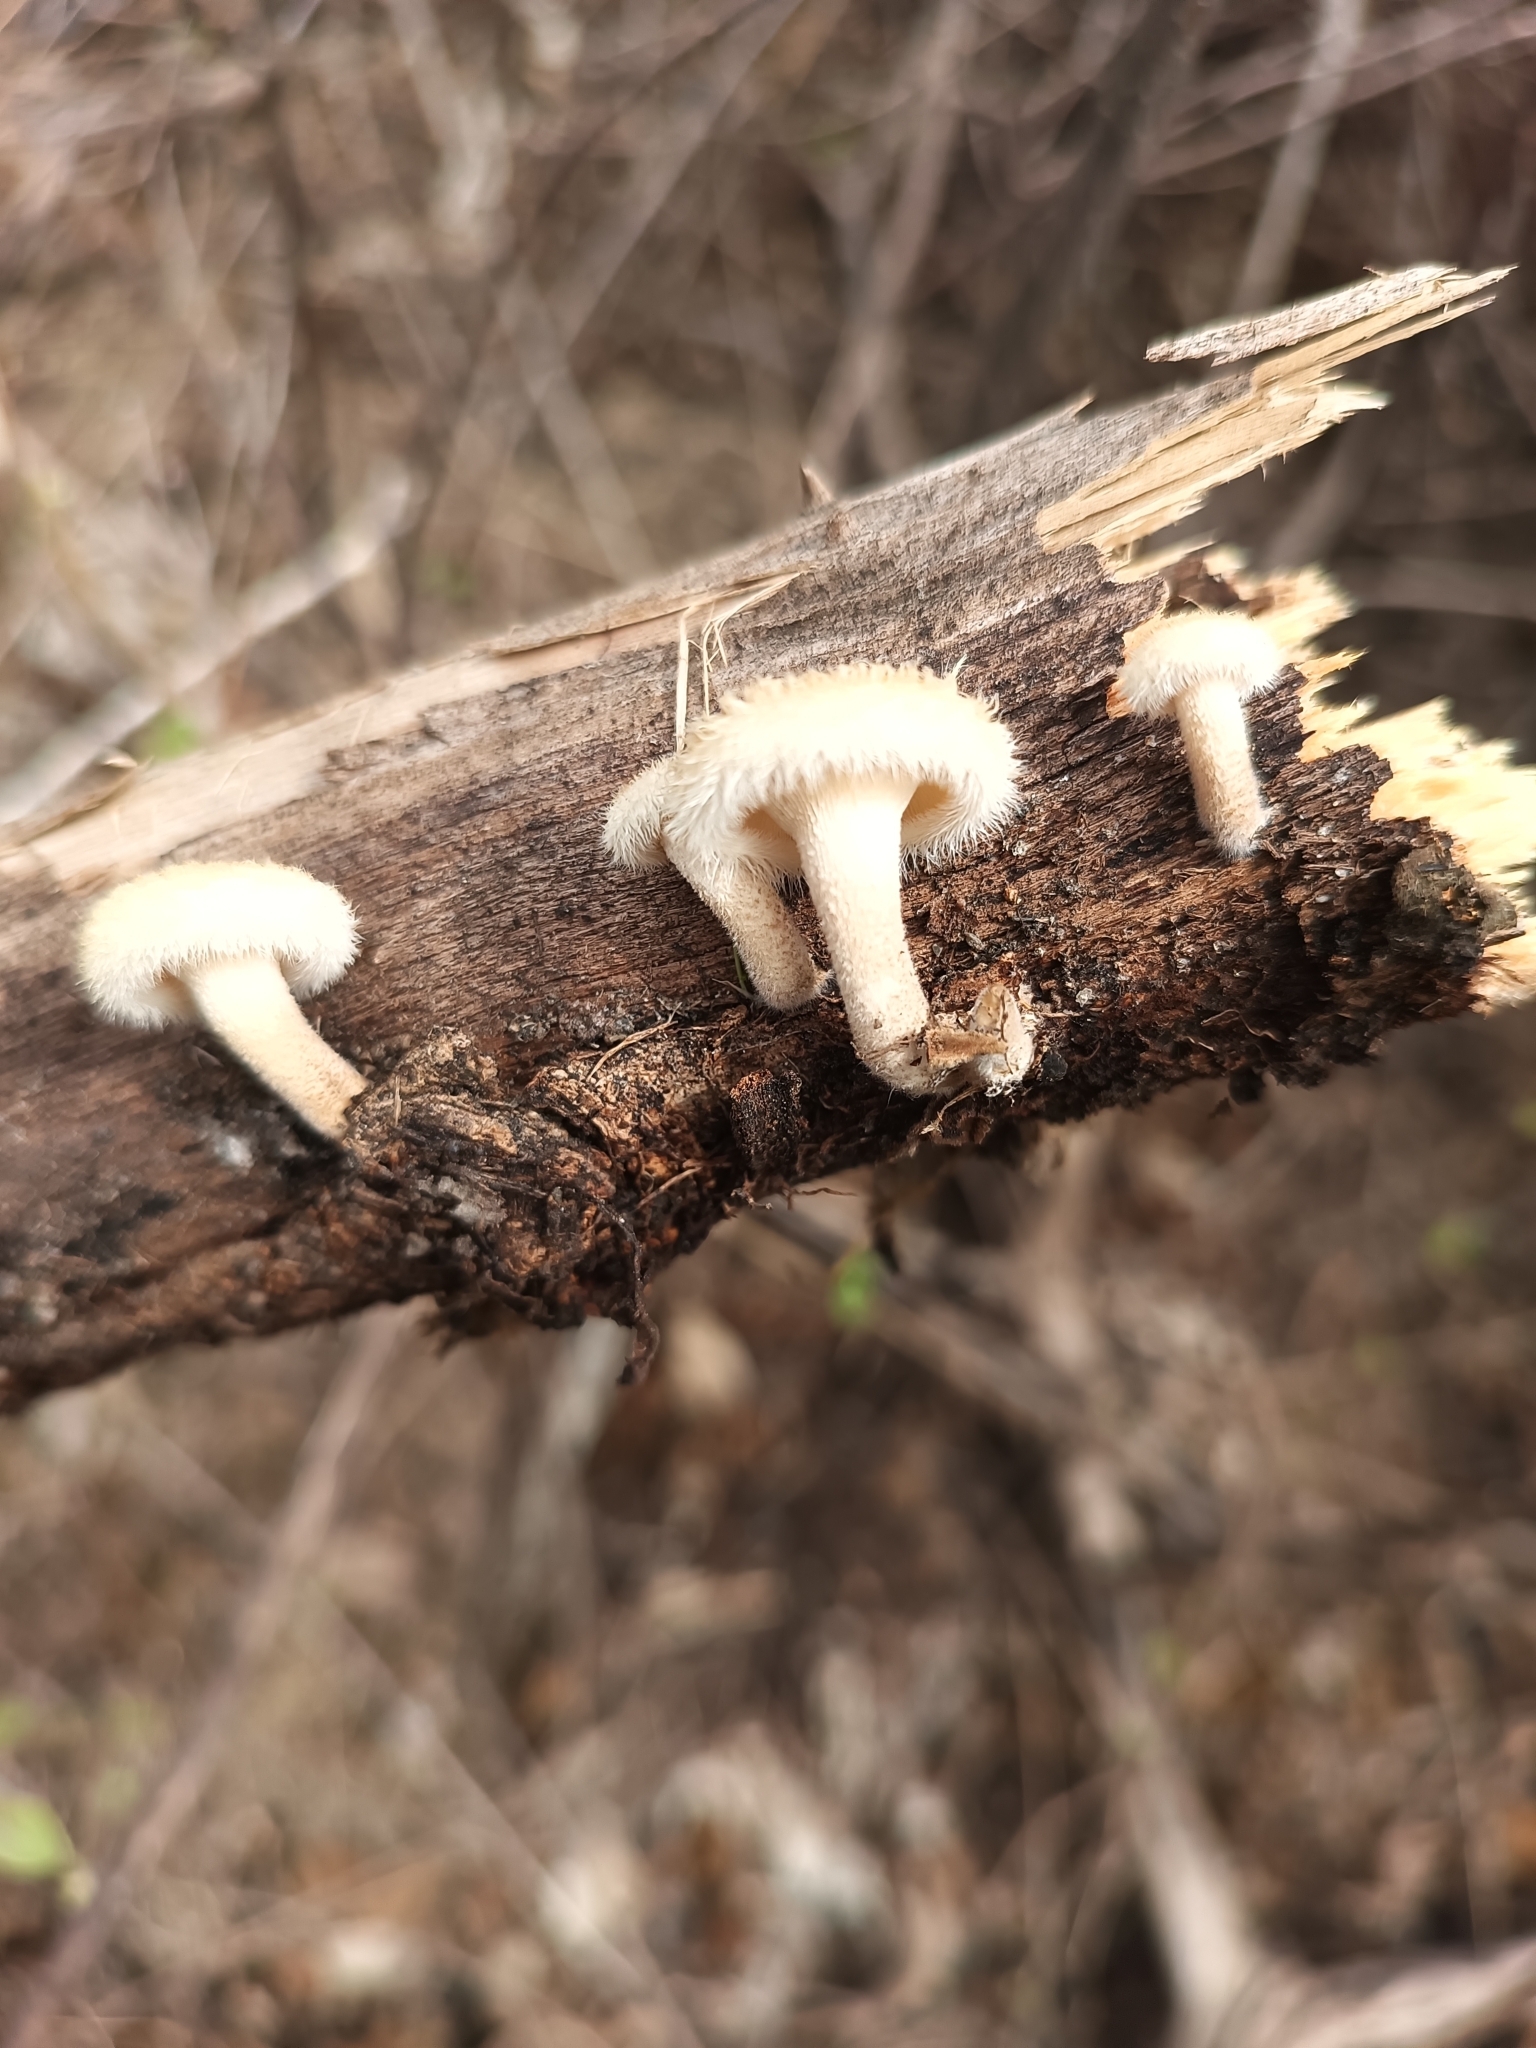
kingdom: Fungi
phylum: Basidiomycota
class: Agaricomycetes
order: Polyporales
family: Polyporaceae
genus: Lentinus
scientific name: Lentinus crinitus
